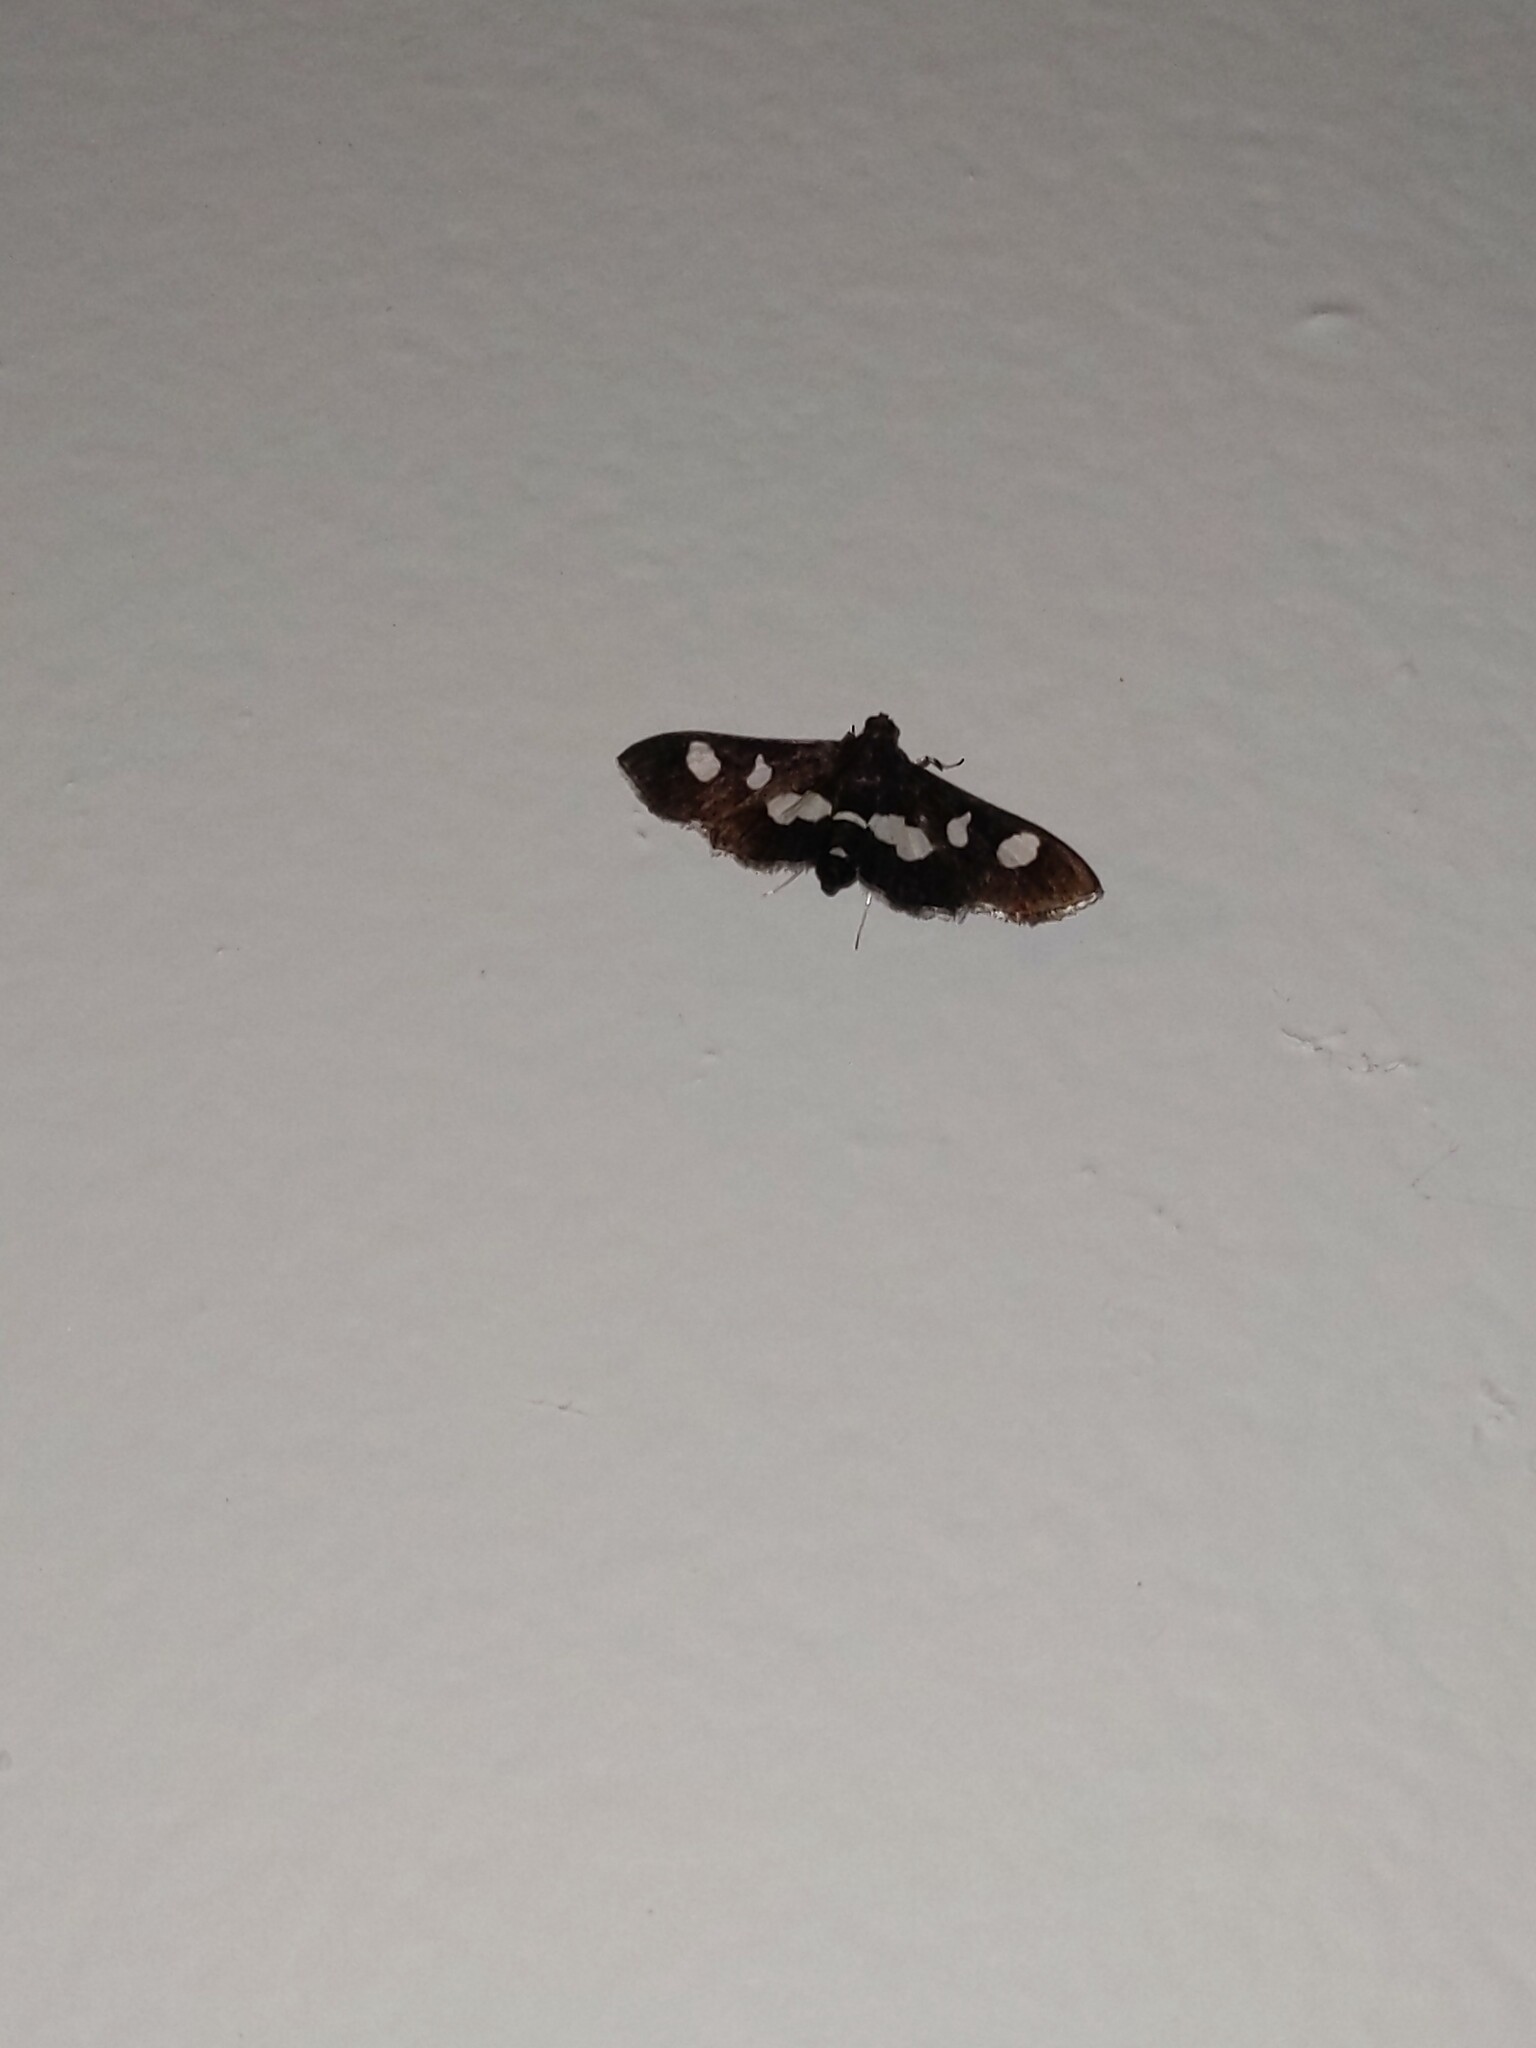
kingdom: Animalia
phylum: Arthropoda
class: Insecta
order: Lepidoptera
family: Crambidae
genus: Desmia
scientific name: Desmia
